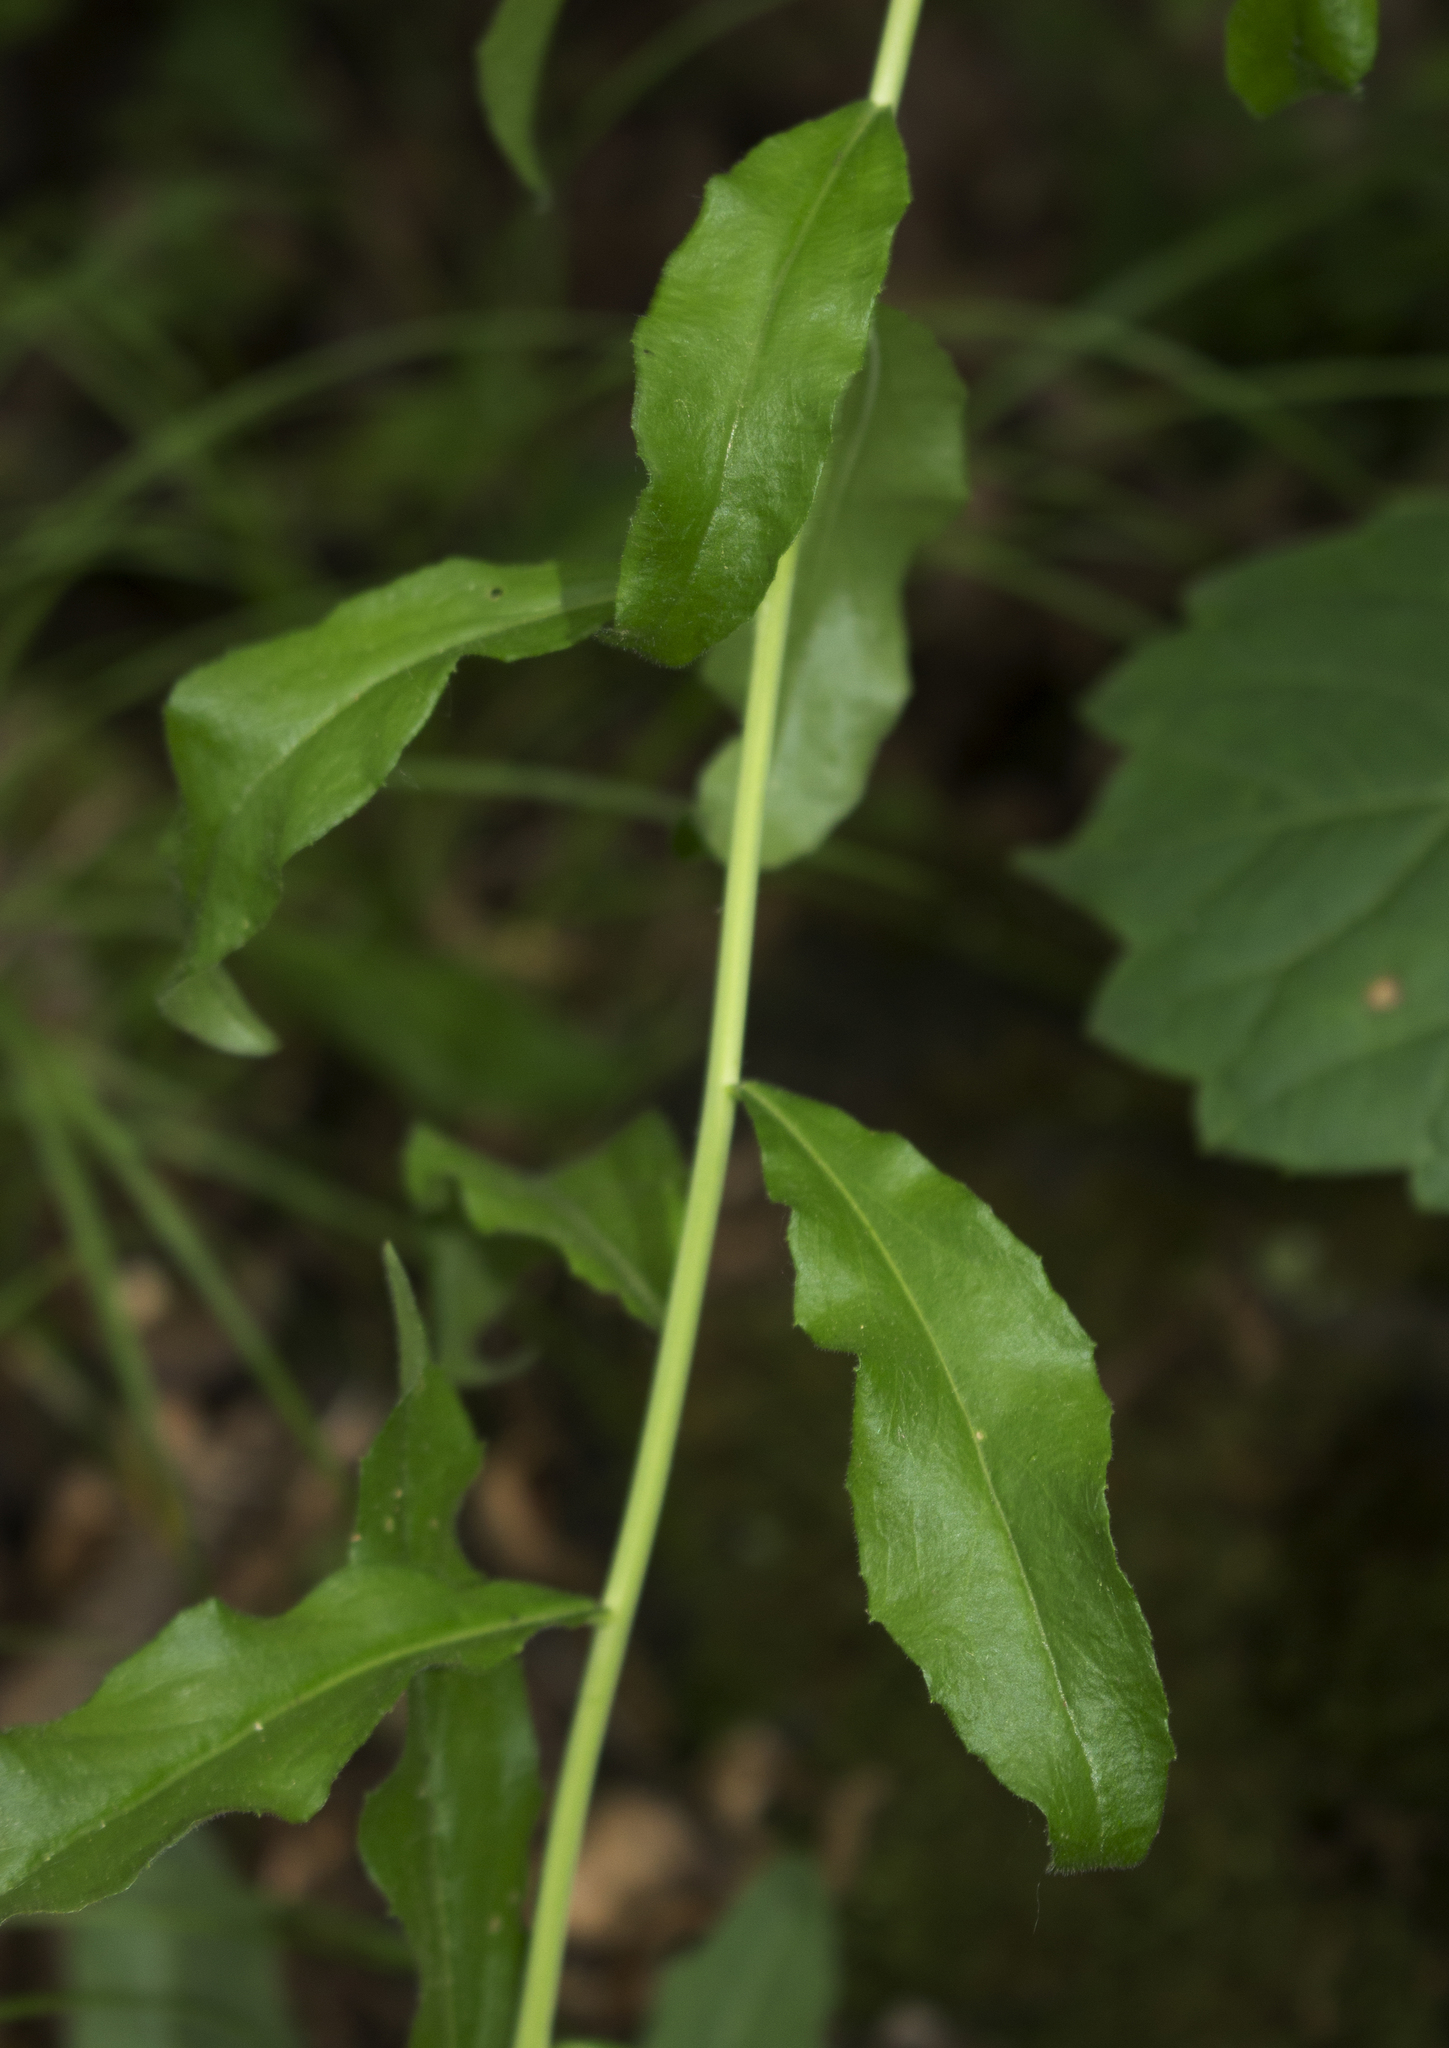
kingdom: Plantae
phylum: Tracheophyta
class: Magnoliopsida
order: Brassicales
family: Brassicaceae
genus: Borodinia
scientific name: Borodinia canadensis
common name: Sicklepod
